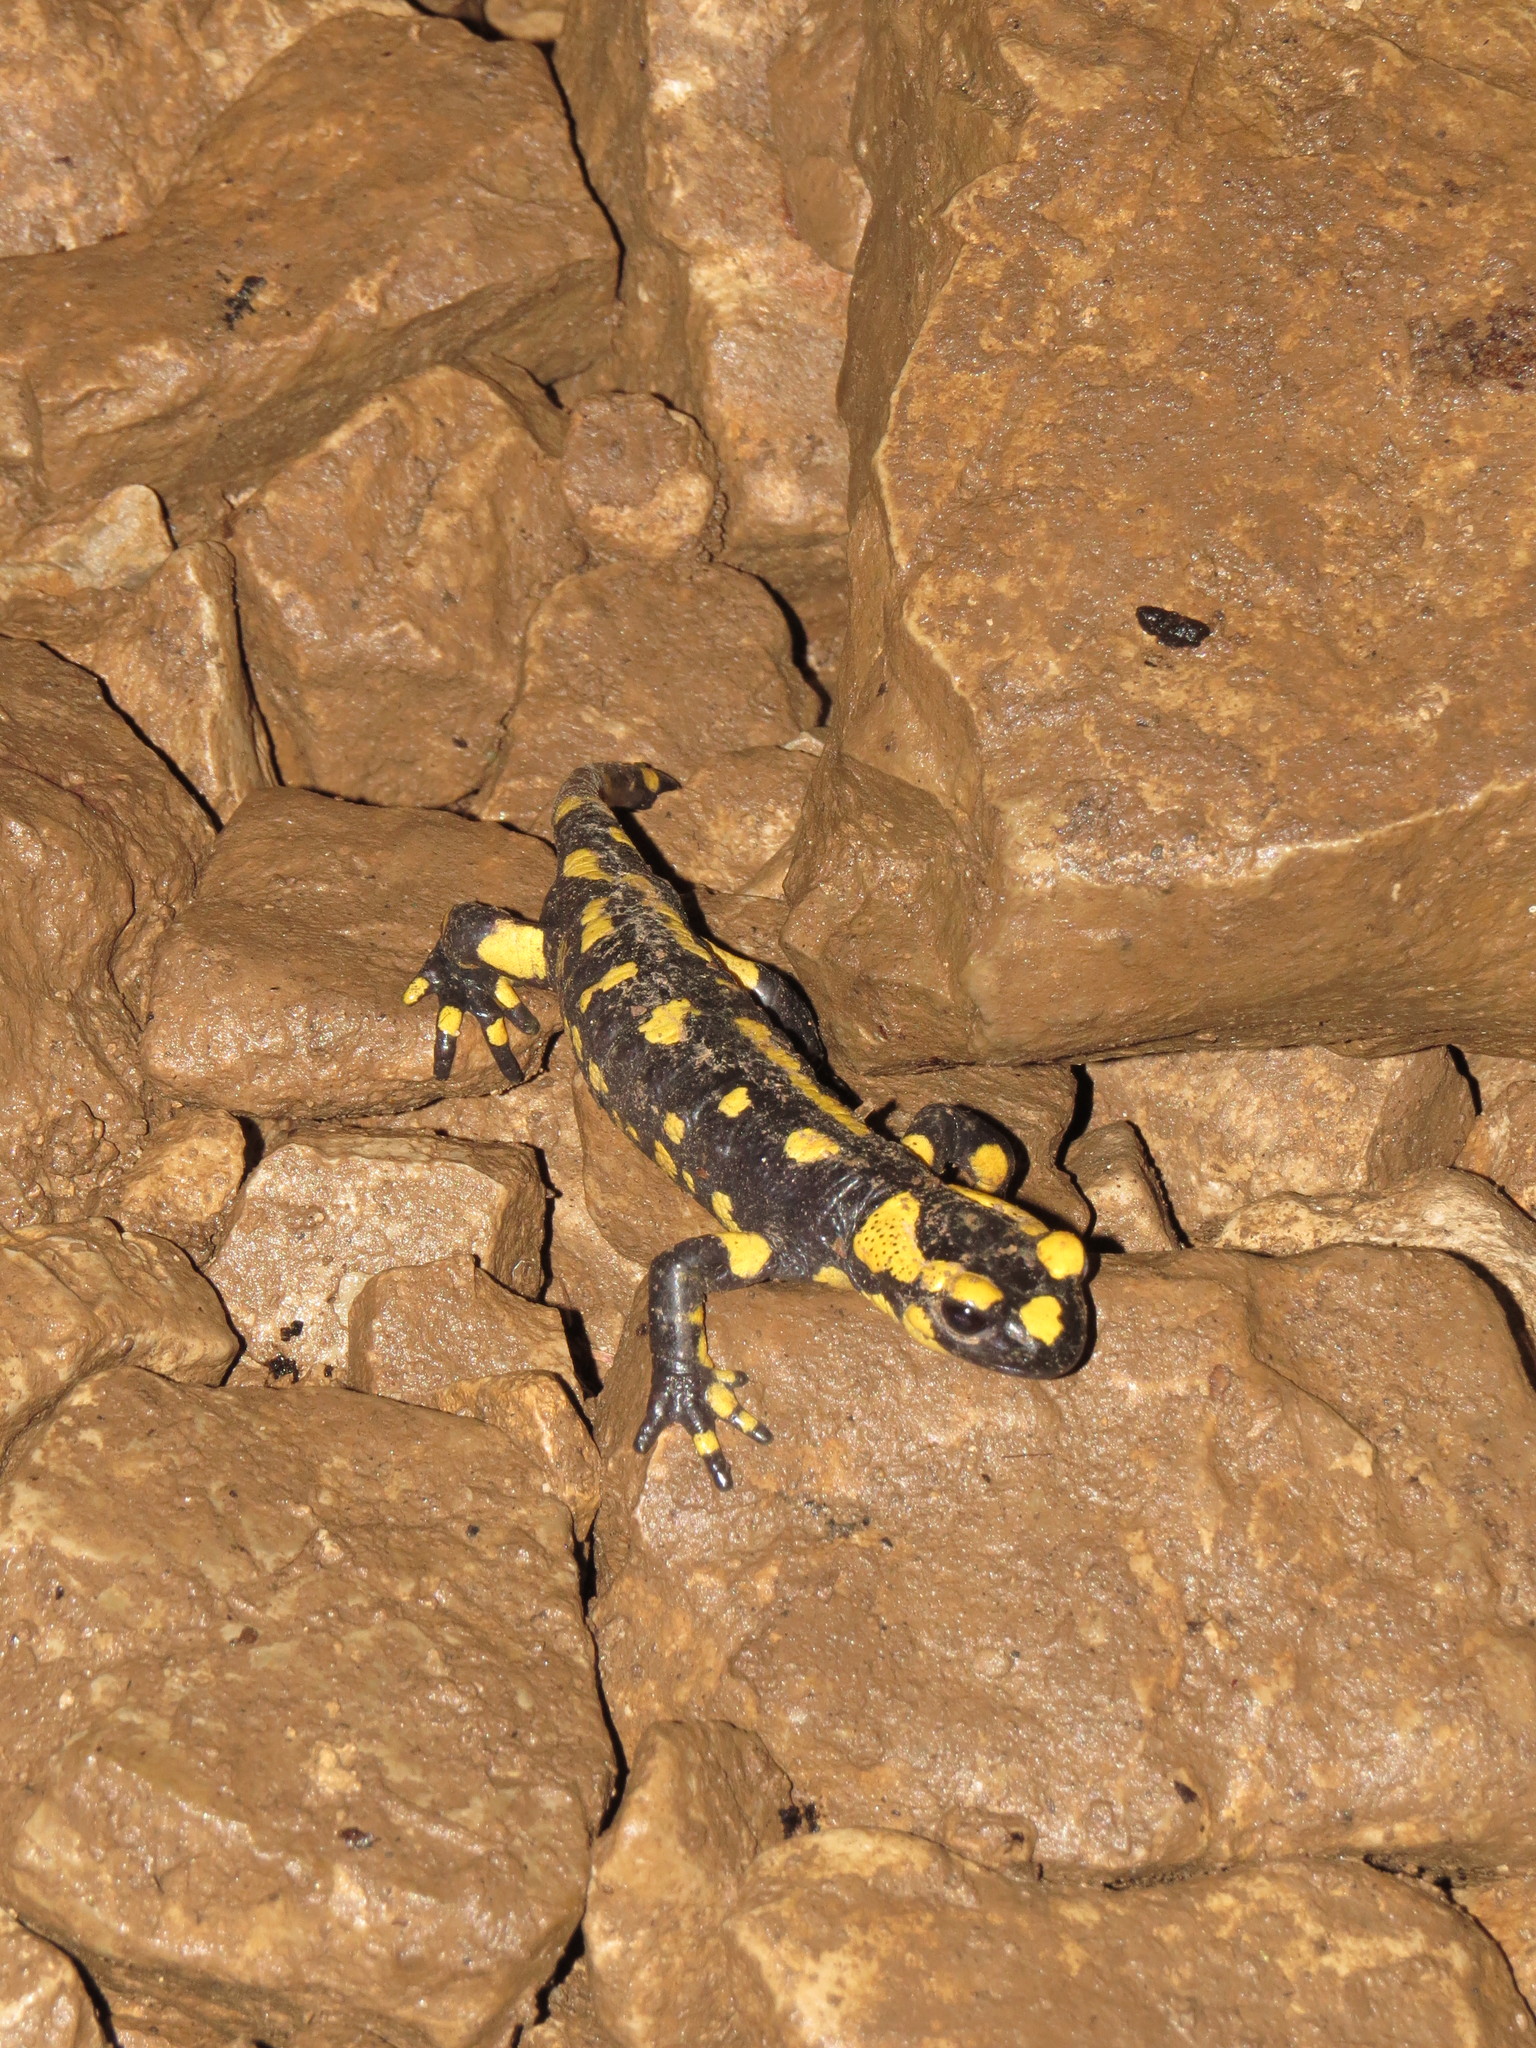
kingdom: Animalia
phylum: Chordata
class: Amphibia
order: Caudata
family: Salamandridae
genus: Salamandra
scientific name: Salamandra salamandra
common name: Fire salamander
